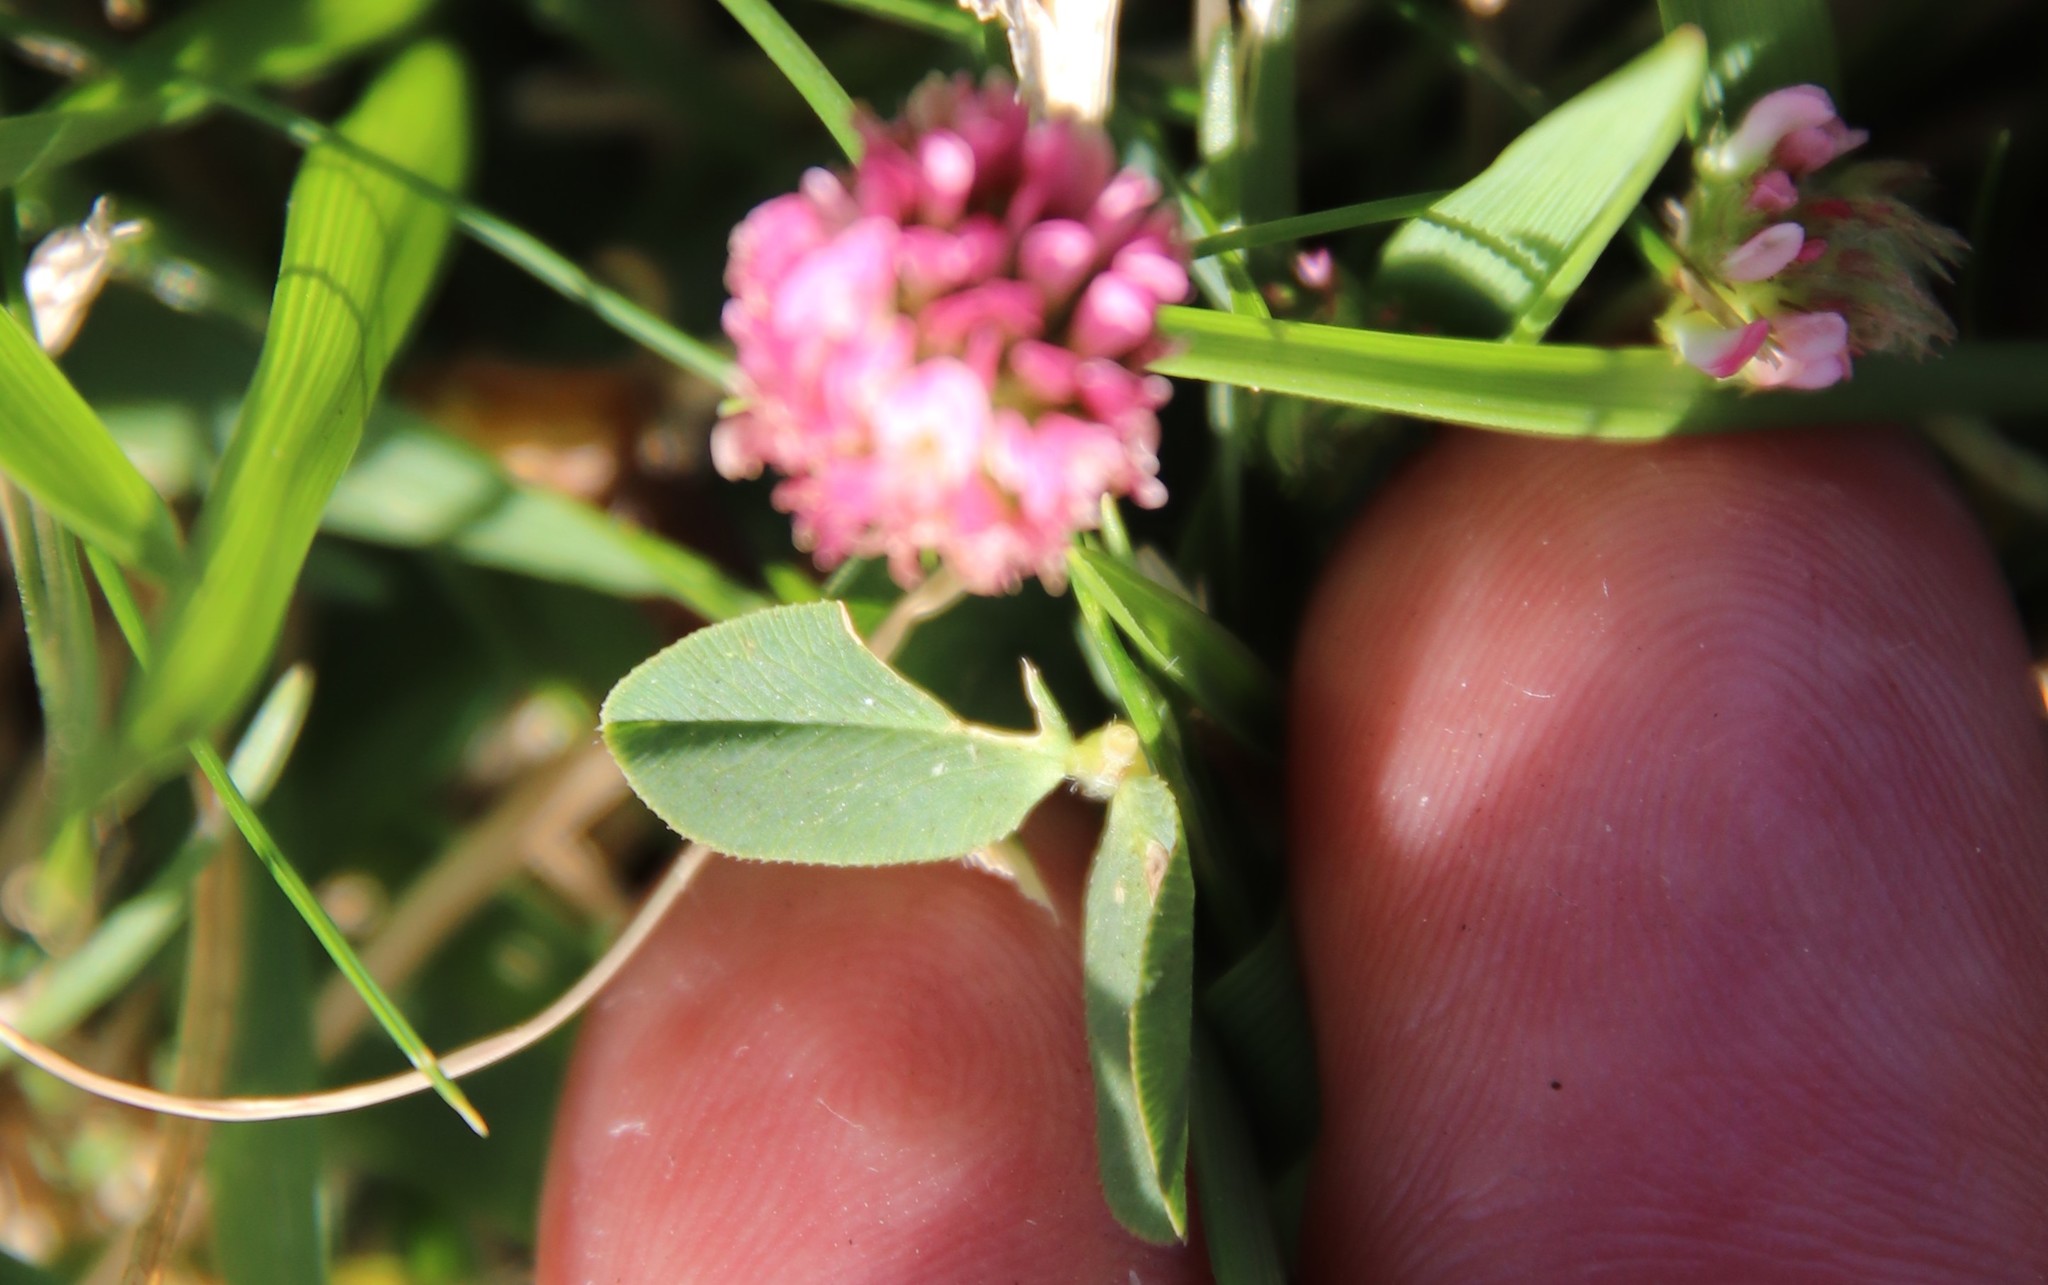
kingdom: Plantae
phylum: Tracheophyta
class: Magnoliopsida
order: Fabales
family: Fabaceae
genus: Trifolium
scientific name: Trifolium fragiferum
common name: Strawberry clover
